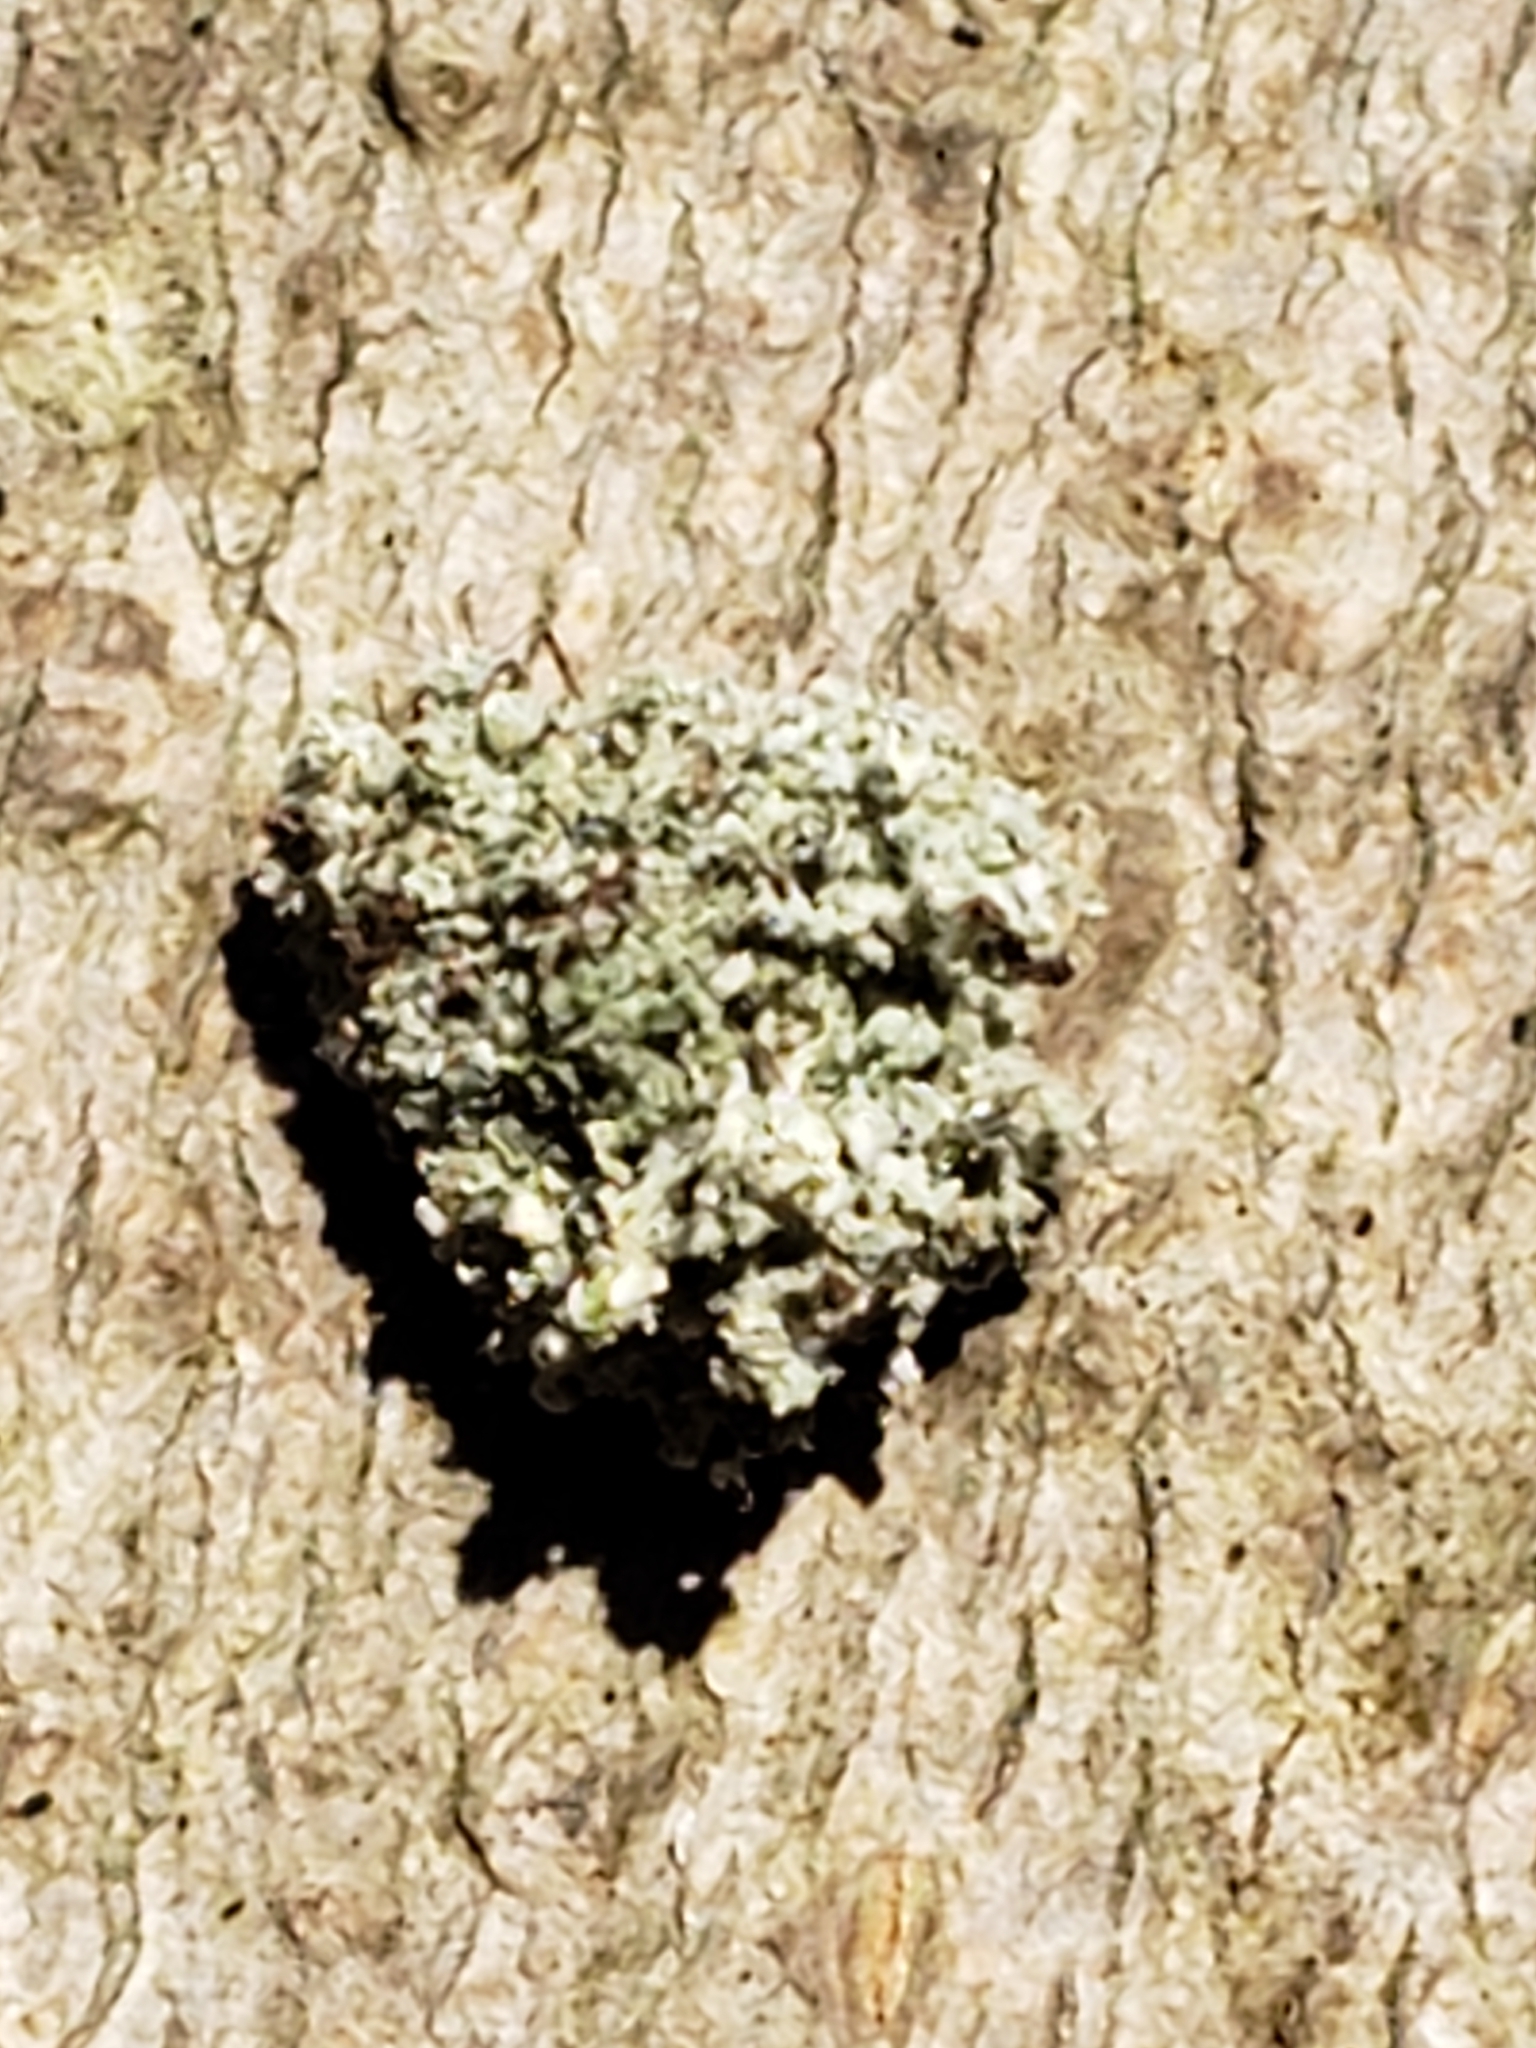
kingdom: Animalia
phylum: Arthropoda
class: Insecta
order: Neuroptera
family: Chrysopidae
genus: Leucochrysa
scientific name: Leucochrysa pavida
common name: Lichen-carrying green lacewing
